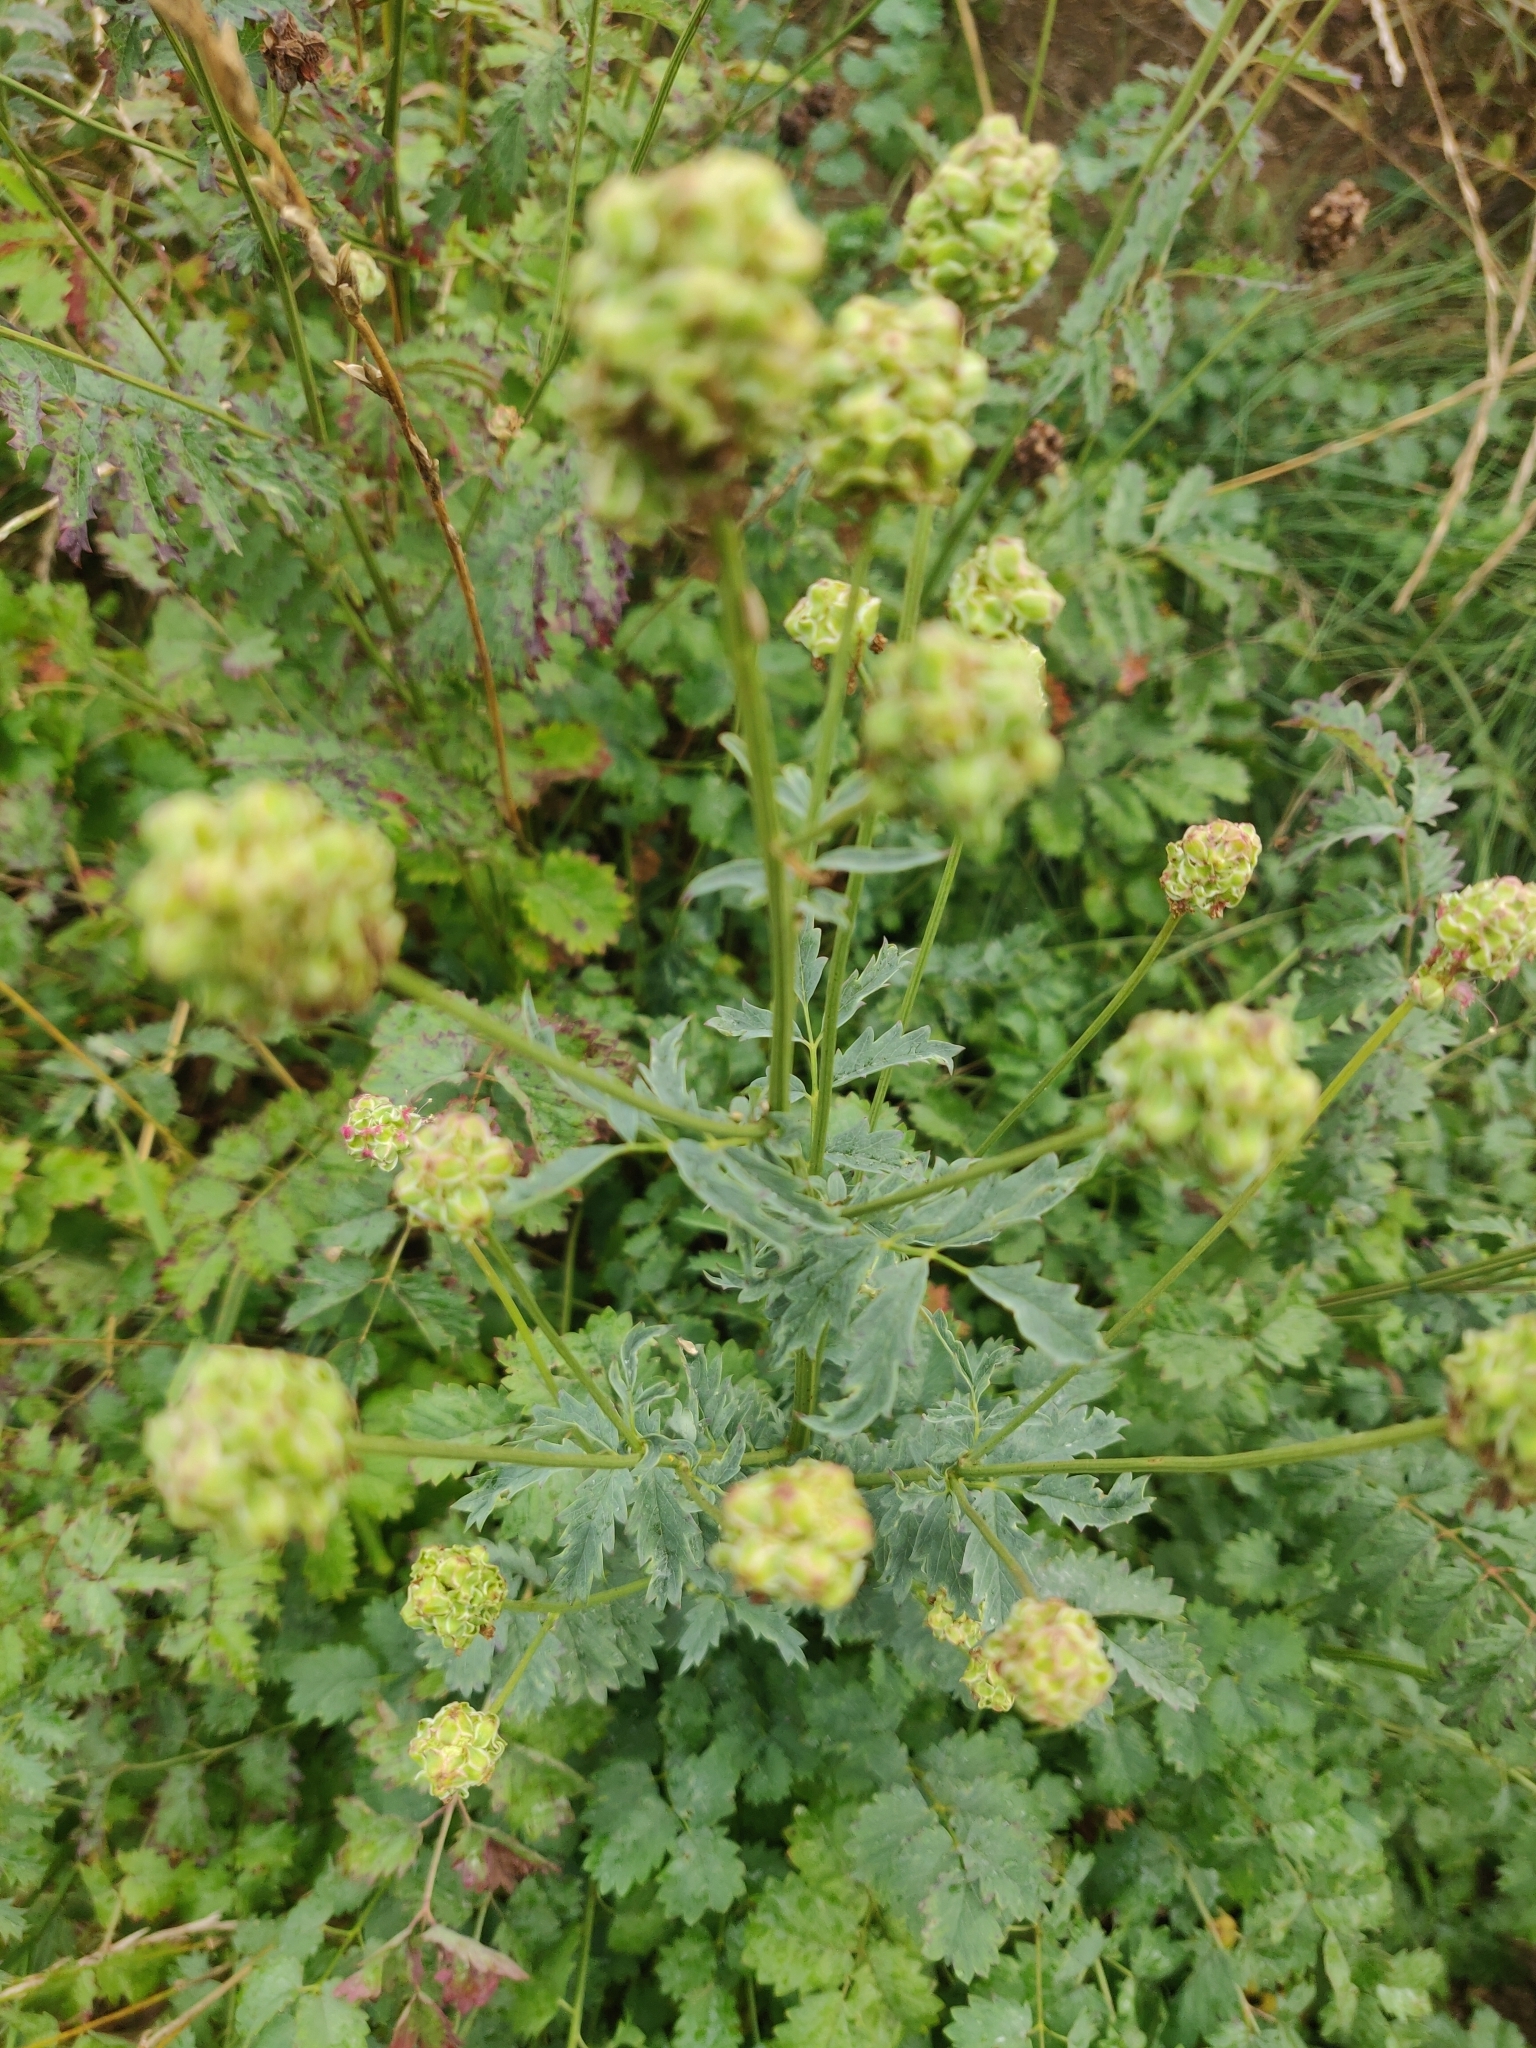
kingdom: Plantae
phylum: Tracheophyta
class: Magnoliopsida
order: Rosales
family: Rosaceae
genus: Poterium
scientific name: Poterium sanguisorba
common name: Salad burnet
